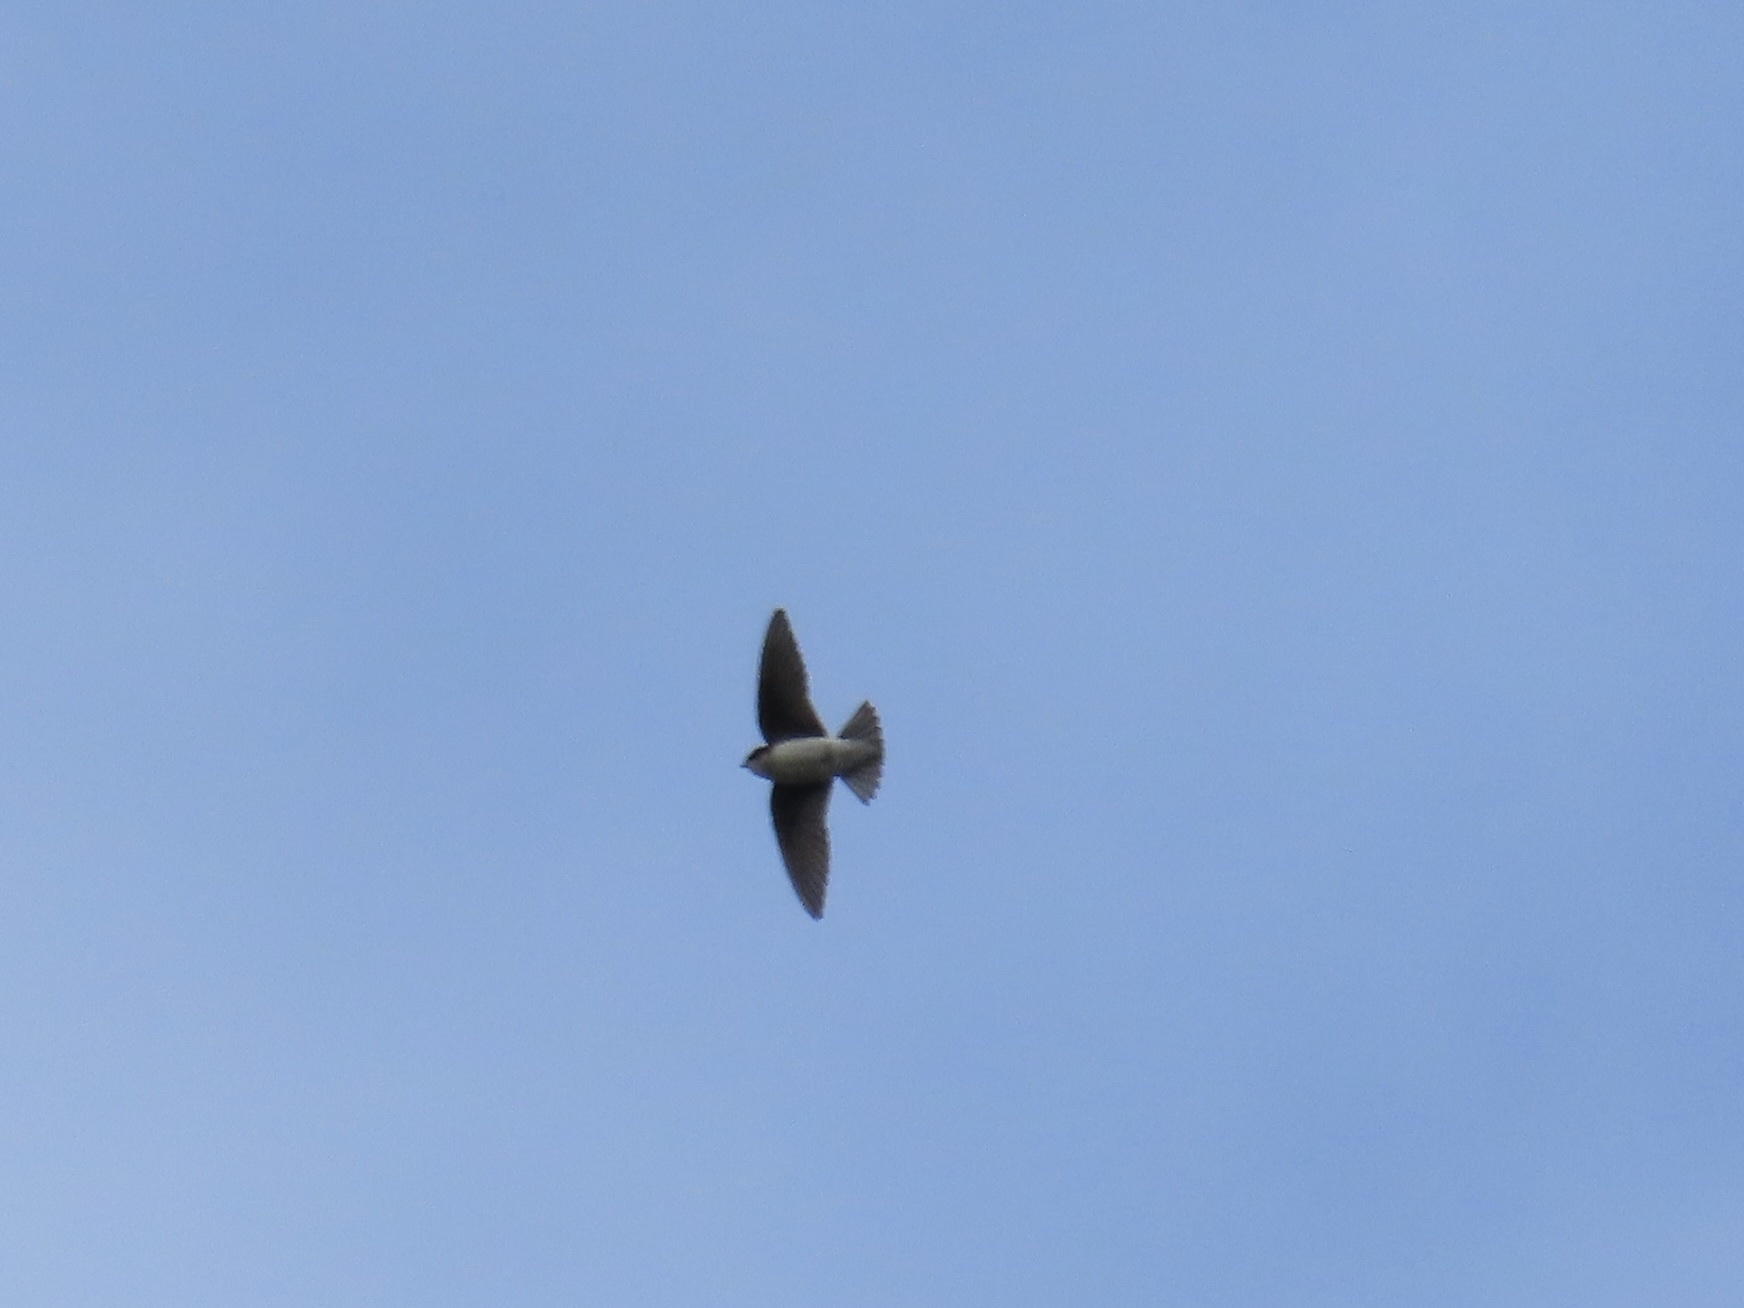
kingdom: Animalia
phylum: Chordata
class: Aves
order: Passeriformes
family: Hirundinidae
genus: Tachycineta
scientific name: Tachycineta bicolor
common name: Tree swallow
